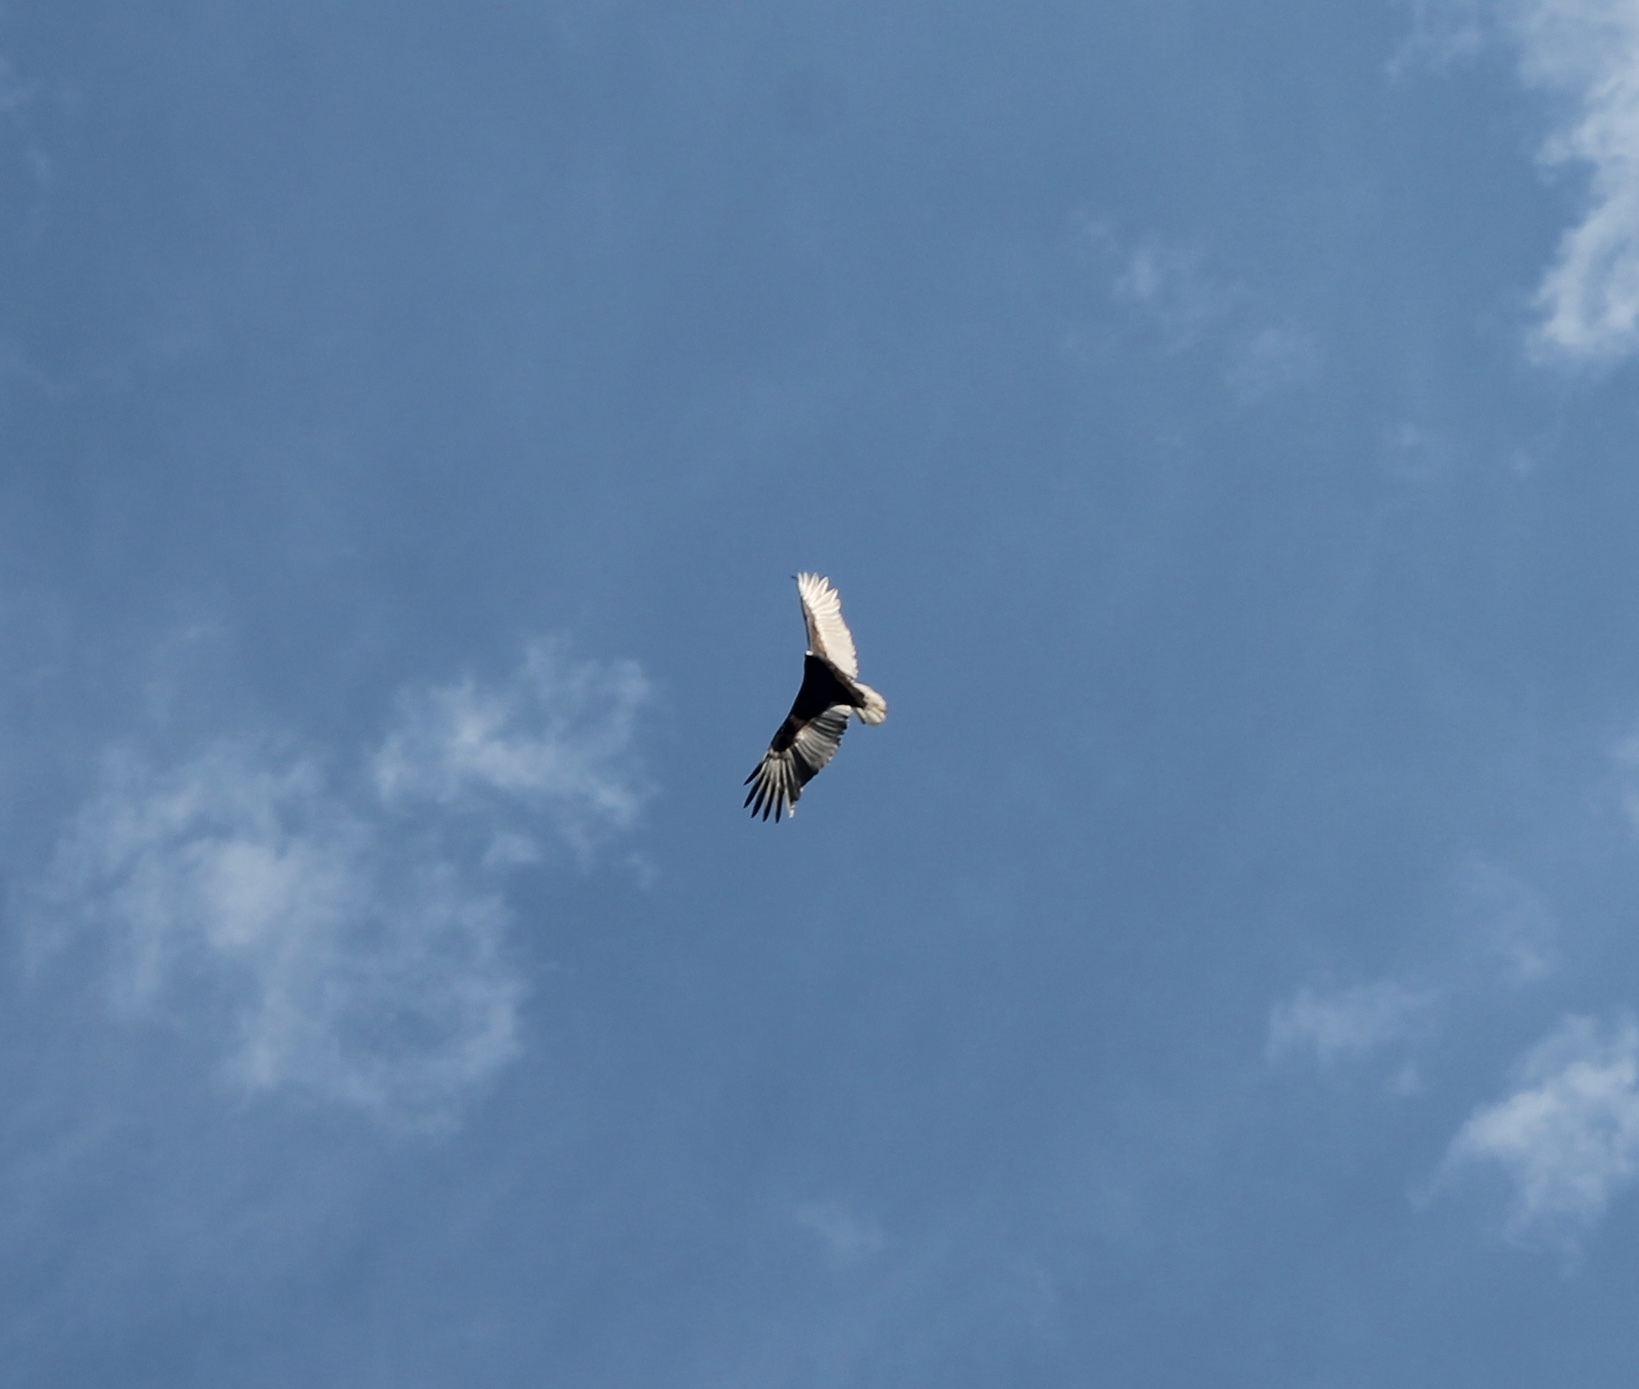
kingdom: Animalia
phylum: Chordata
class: Aves
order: Accipitriformes
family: Cathartidae
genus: Cathartes
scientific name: Cathartes aura
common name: Turkey vulture
